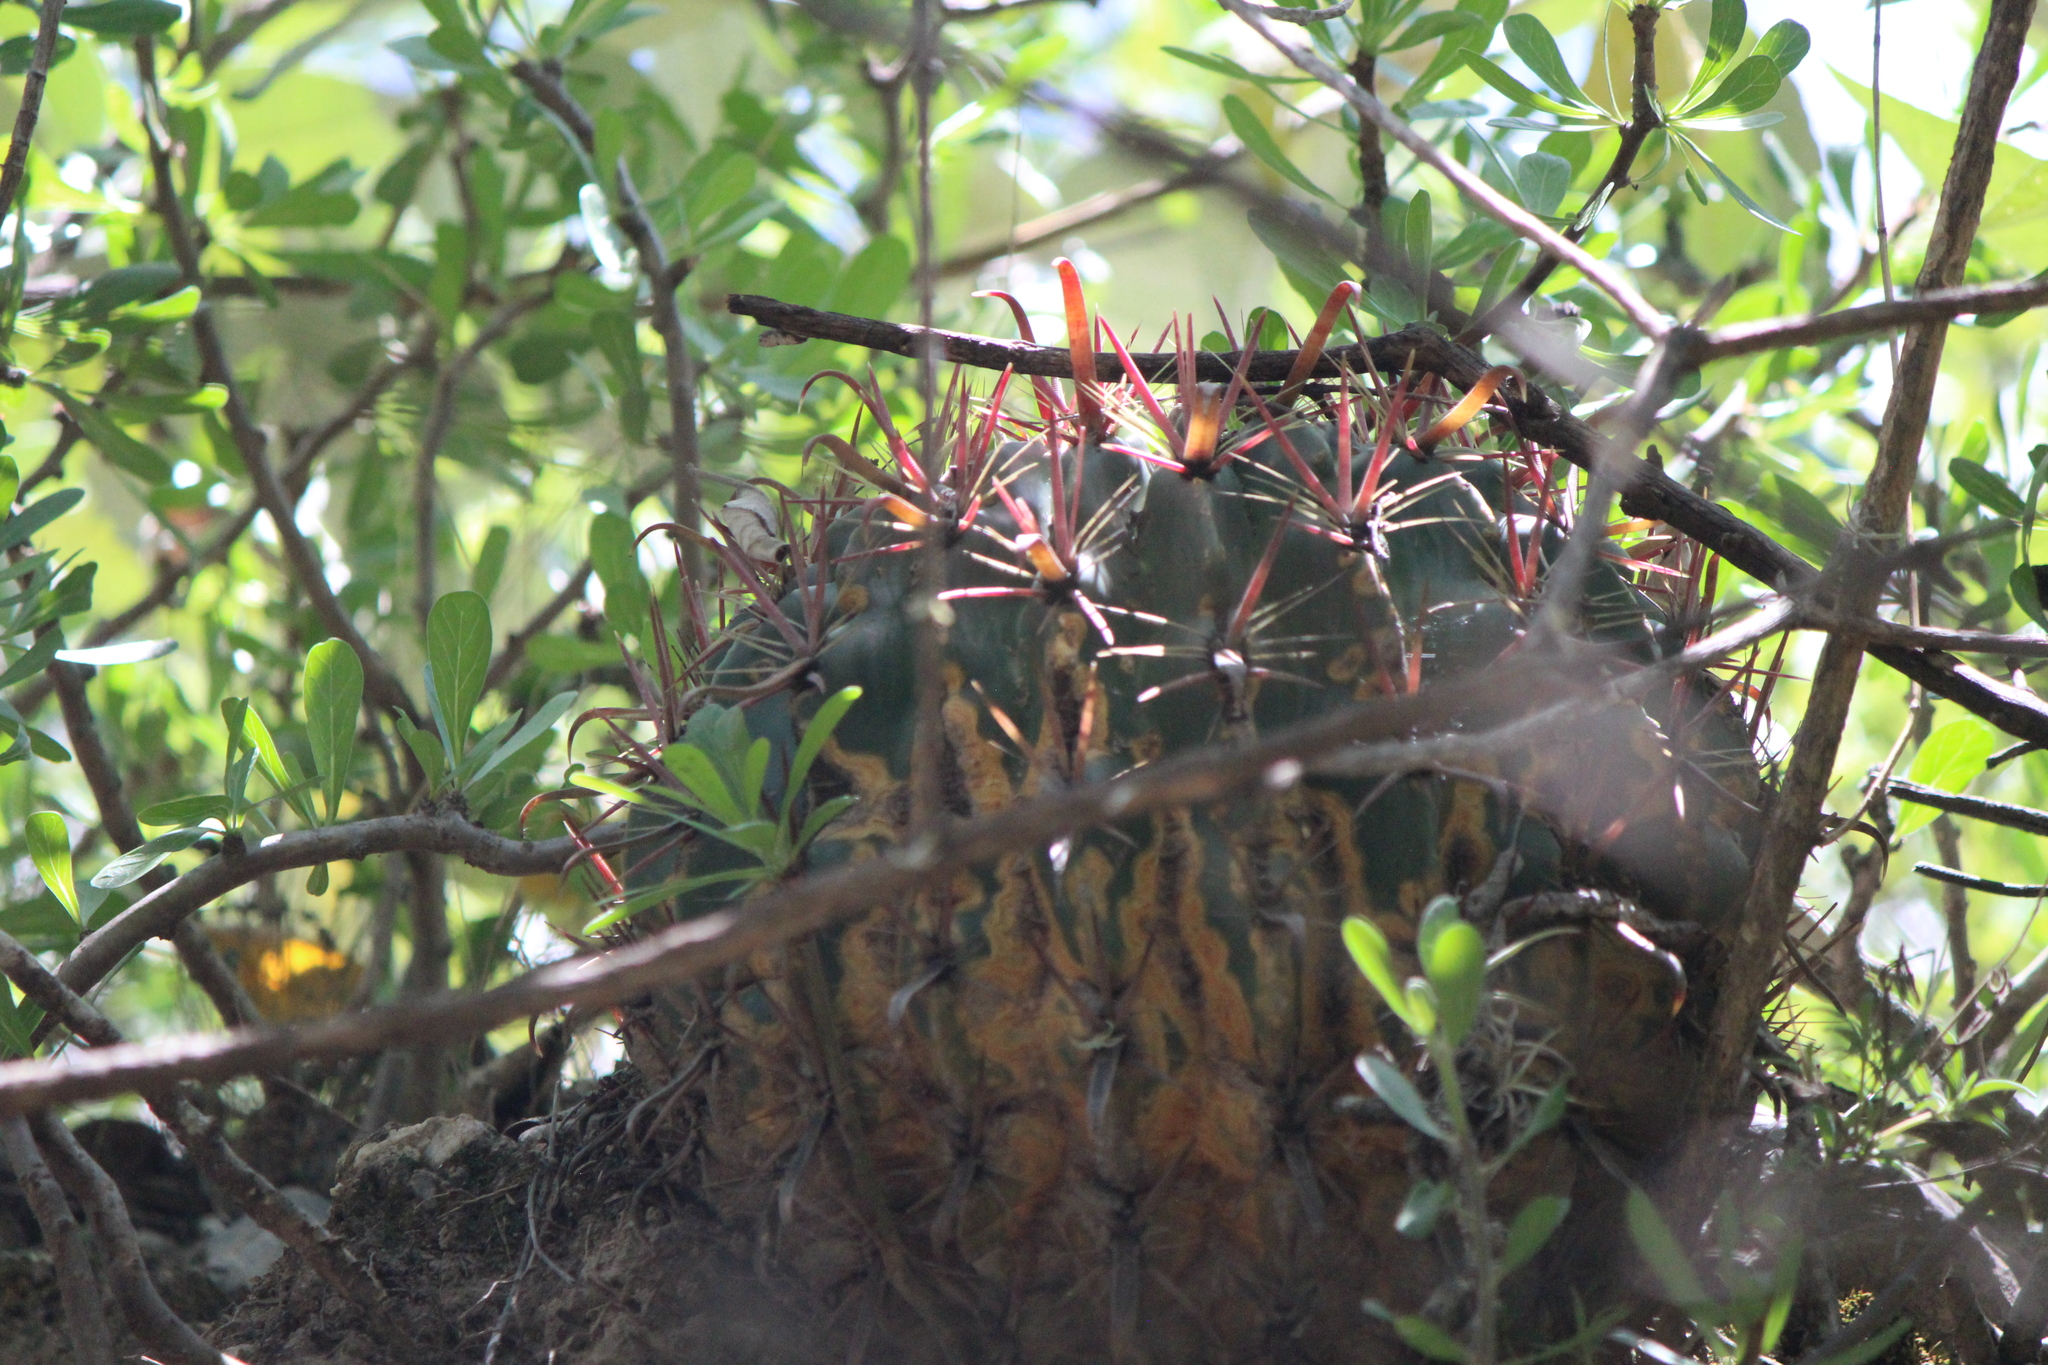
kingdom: Plantae
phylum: Tracheophyta
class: Magnoliopsida
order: Caryophyllales
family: Cactaceae
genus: Ferocactus
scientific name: Ferocactus latispinus
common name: Devil's-tongue cactus
